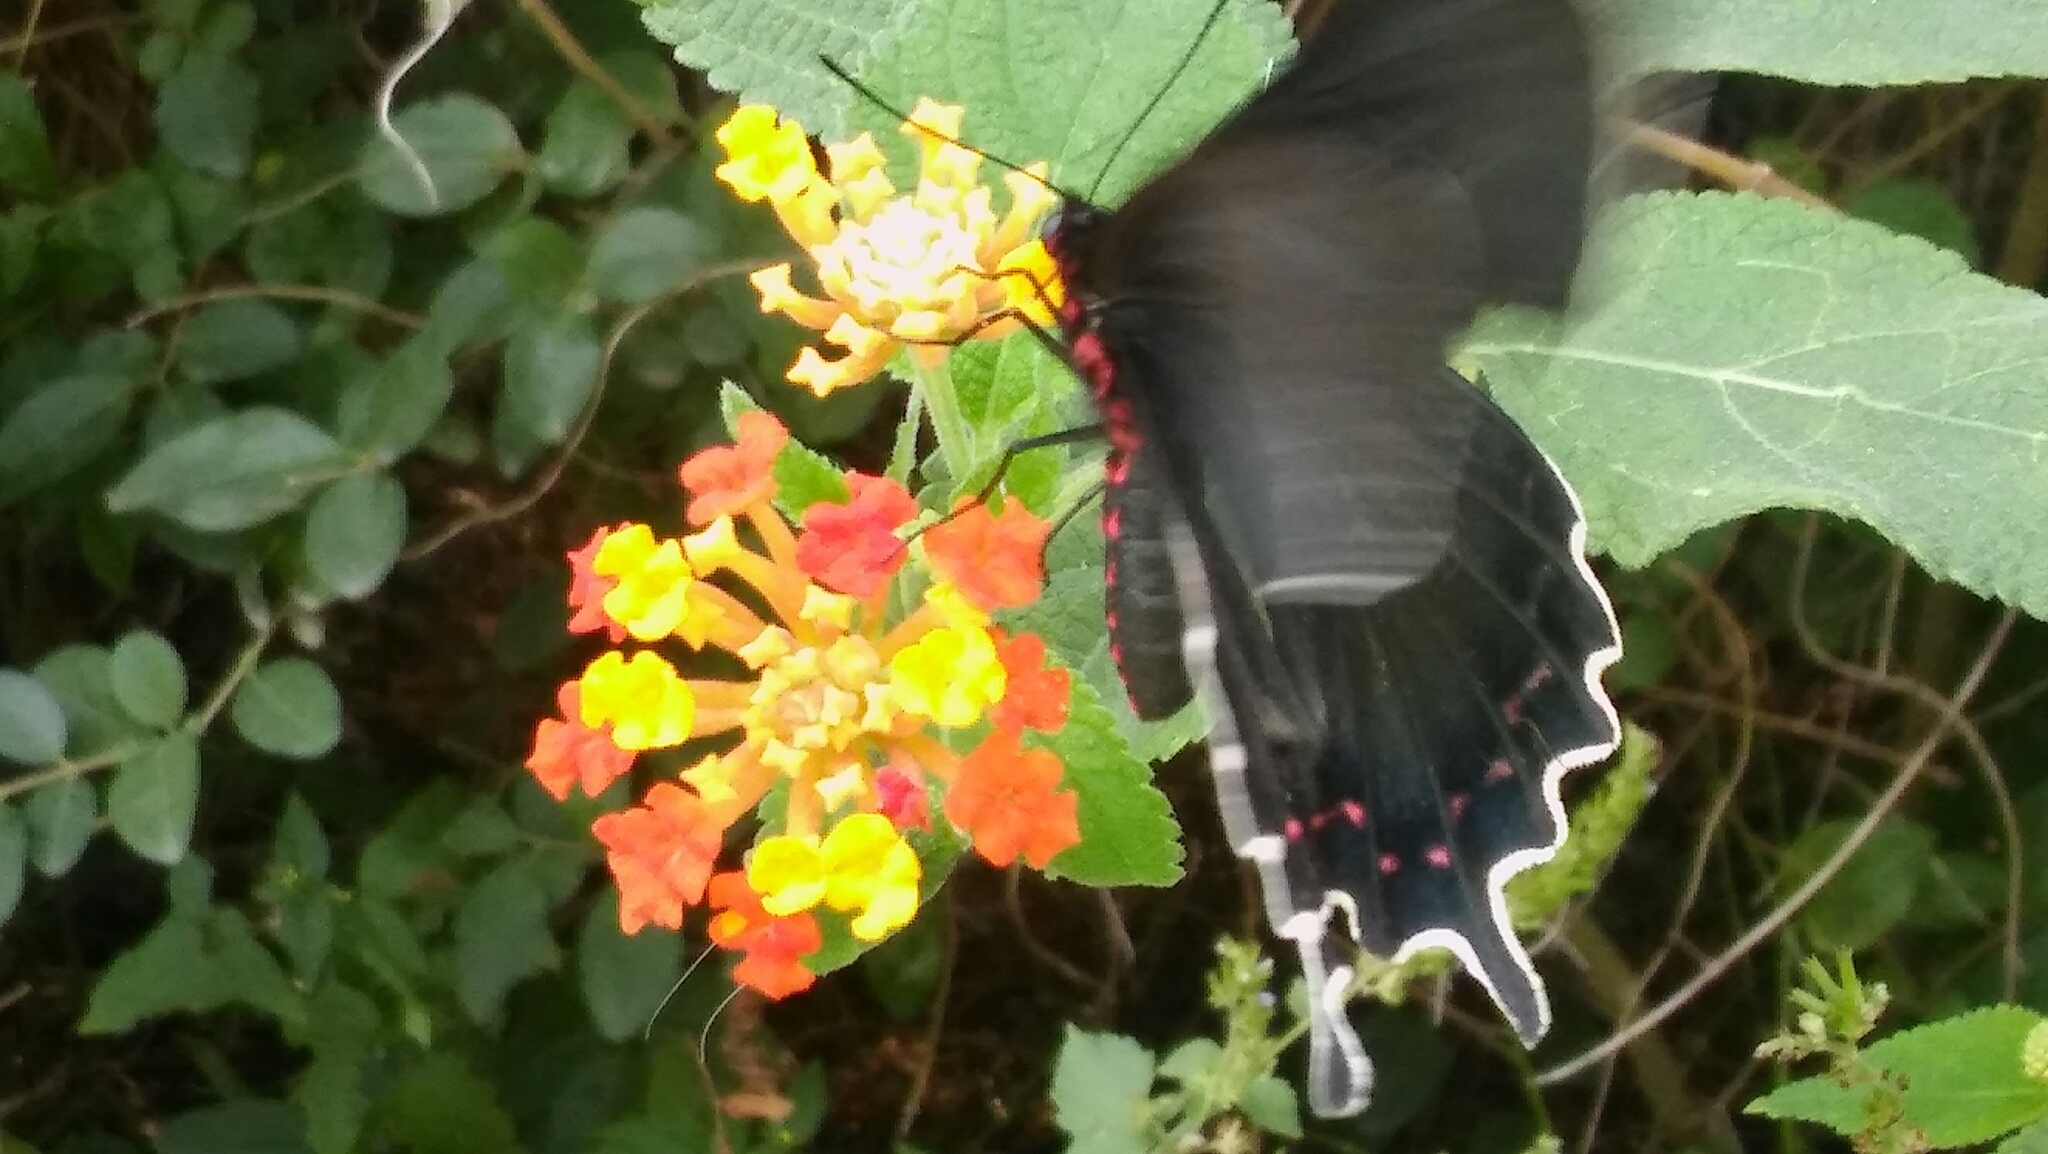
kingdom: Animalia
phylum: Arthropoda
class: Insecta
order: Lepidoptera
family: Papilionidae
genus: Parides
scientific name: Parides bunichus
